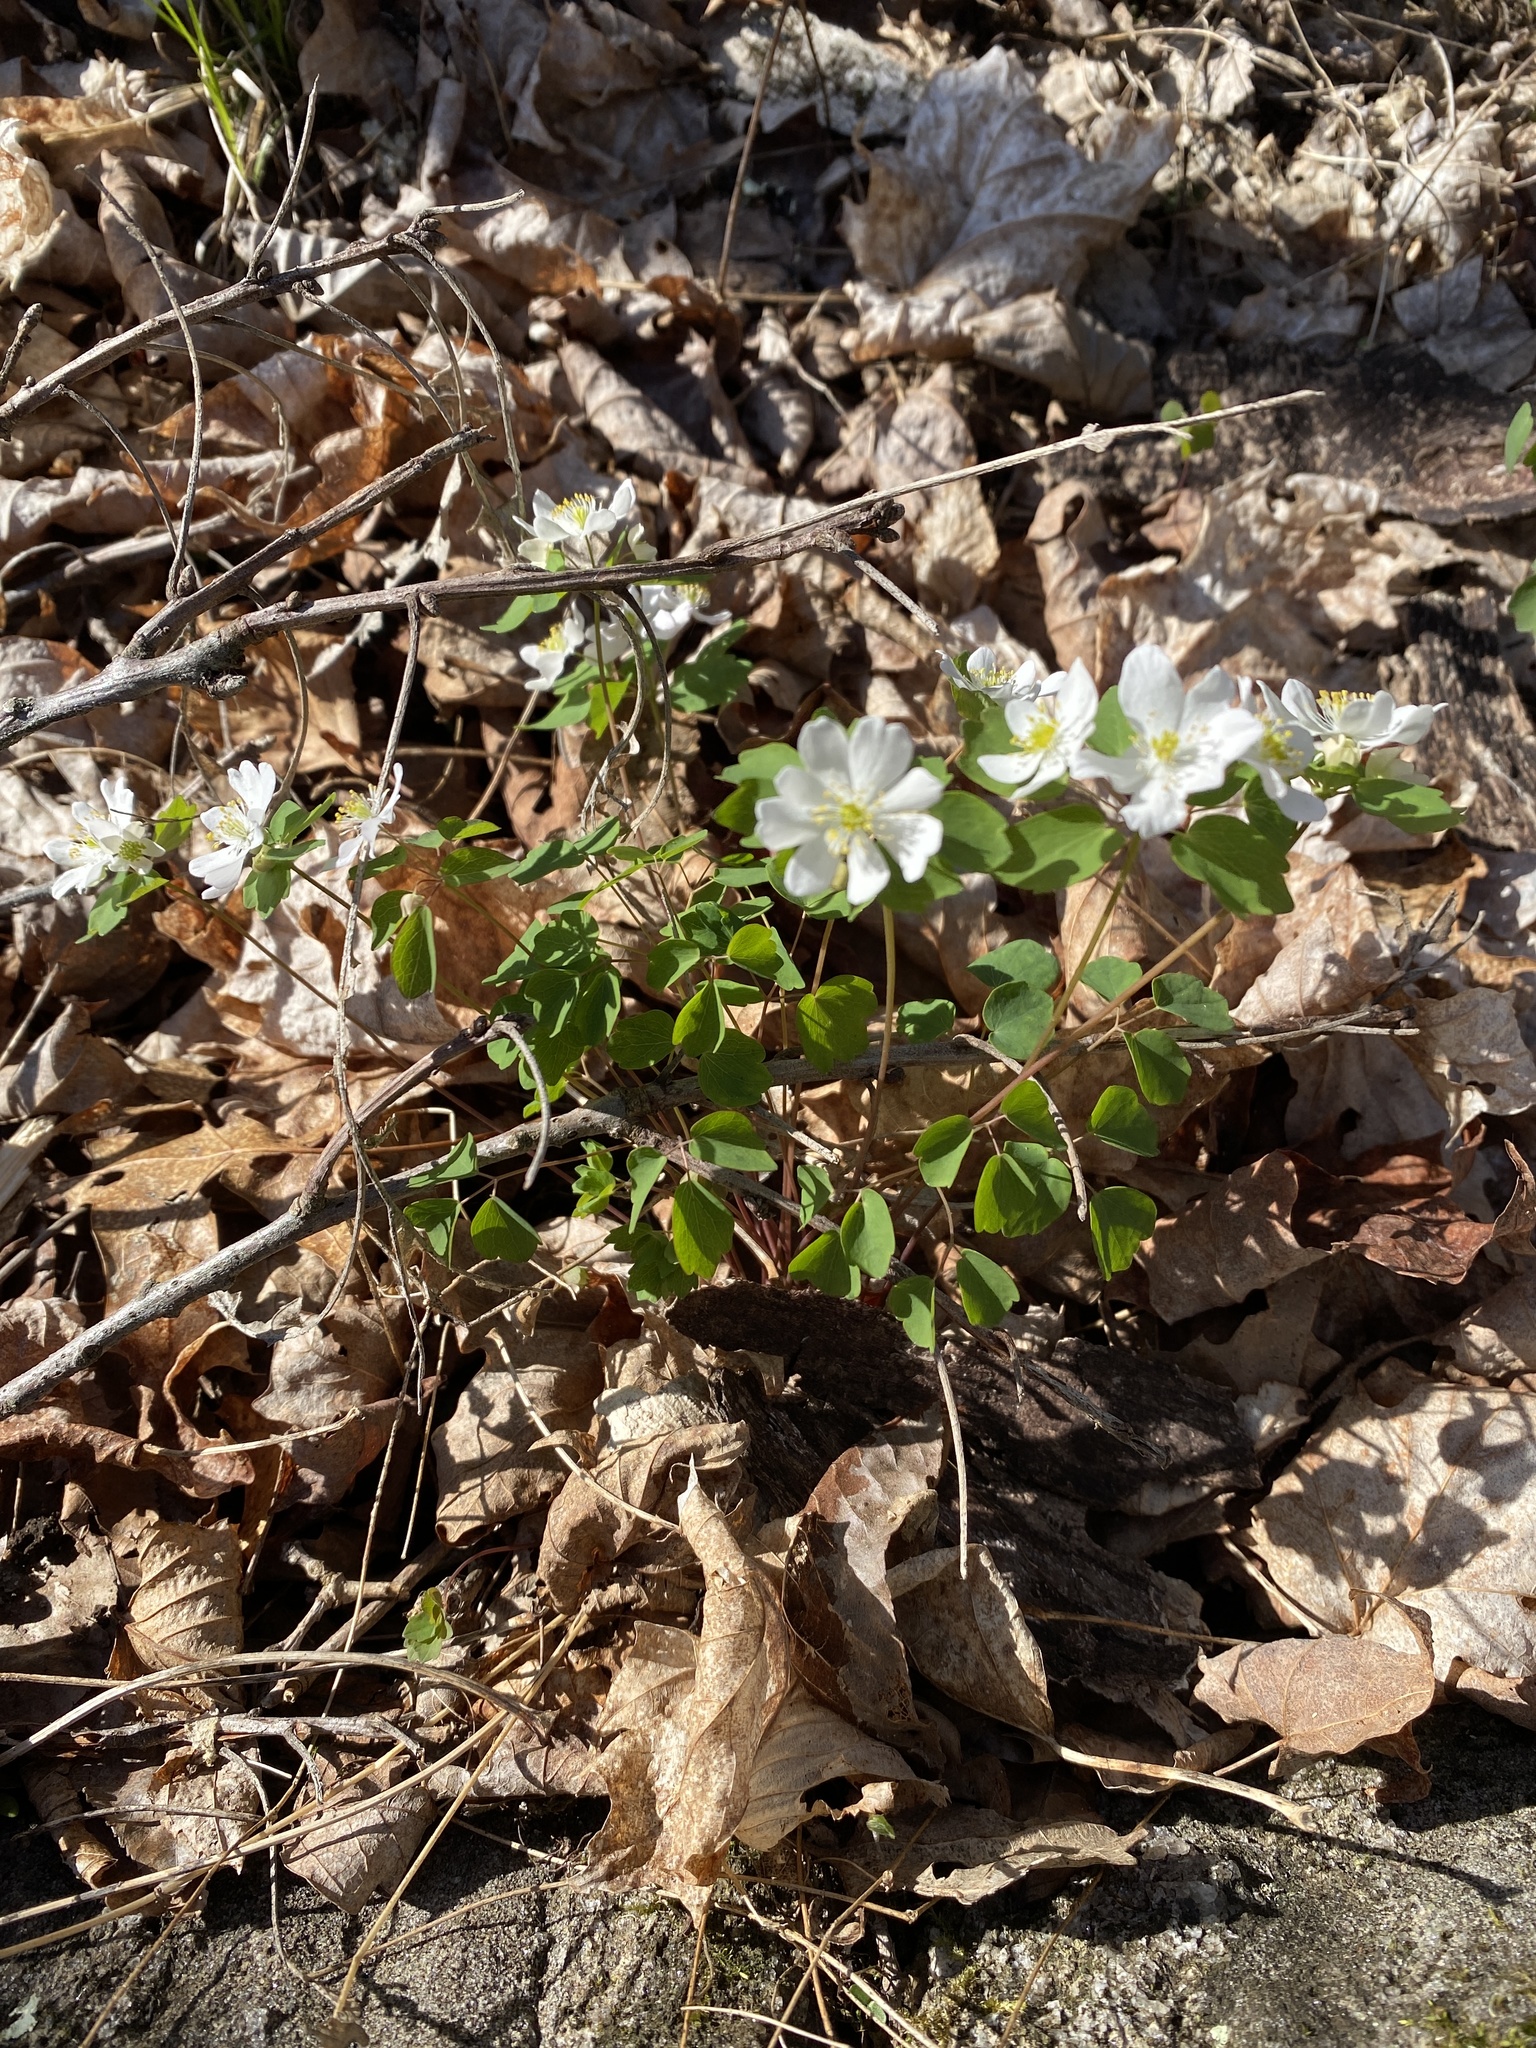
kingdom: Plantae
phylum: Tracheophyta
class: Magnoliopsida
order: Ranunculales
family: Ranunculaceae
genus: Thalictrum
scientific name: Thalictrum thalictroides
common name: Rue-anemone
